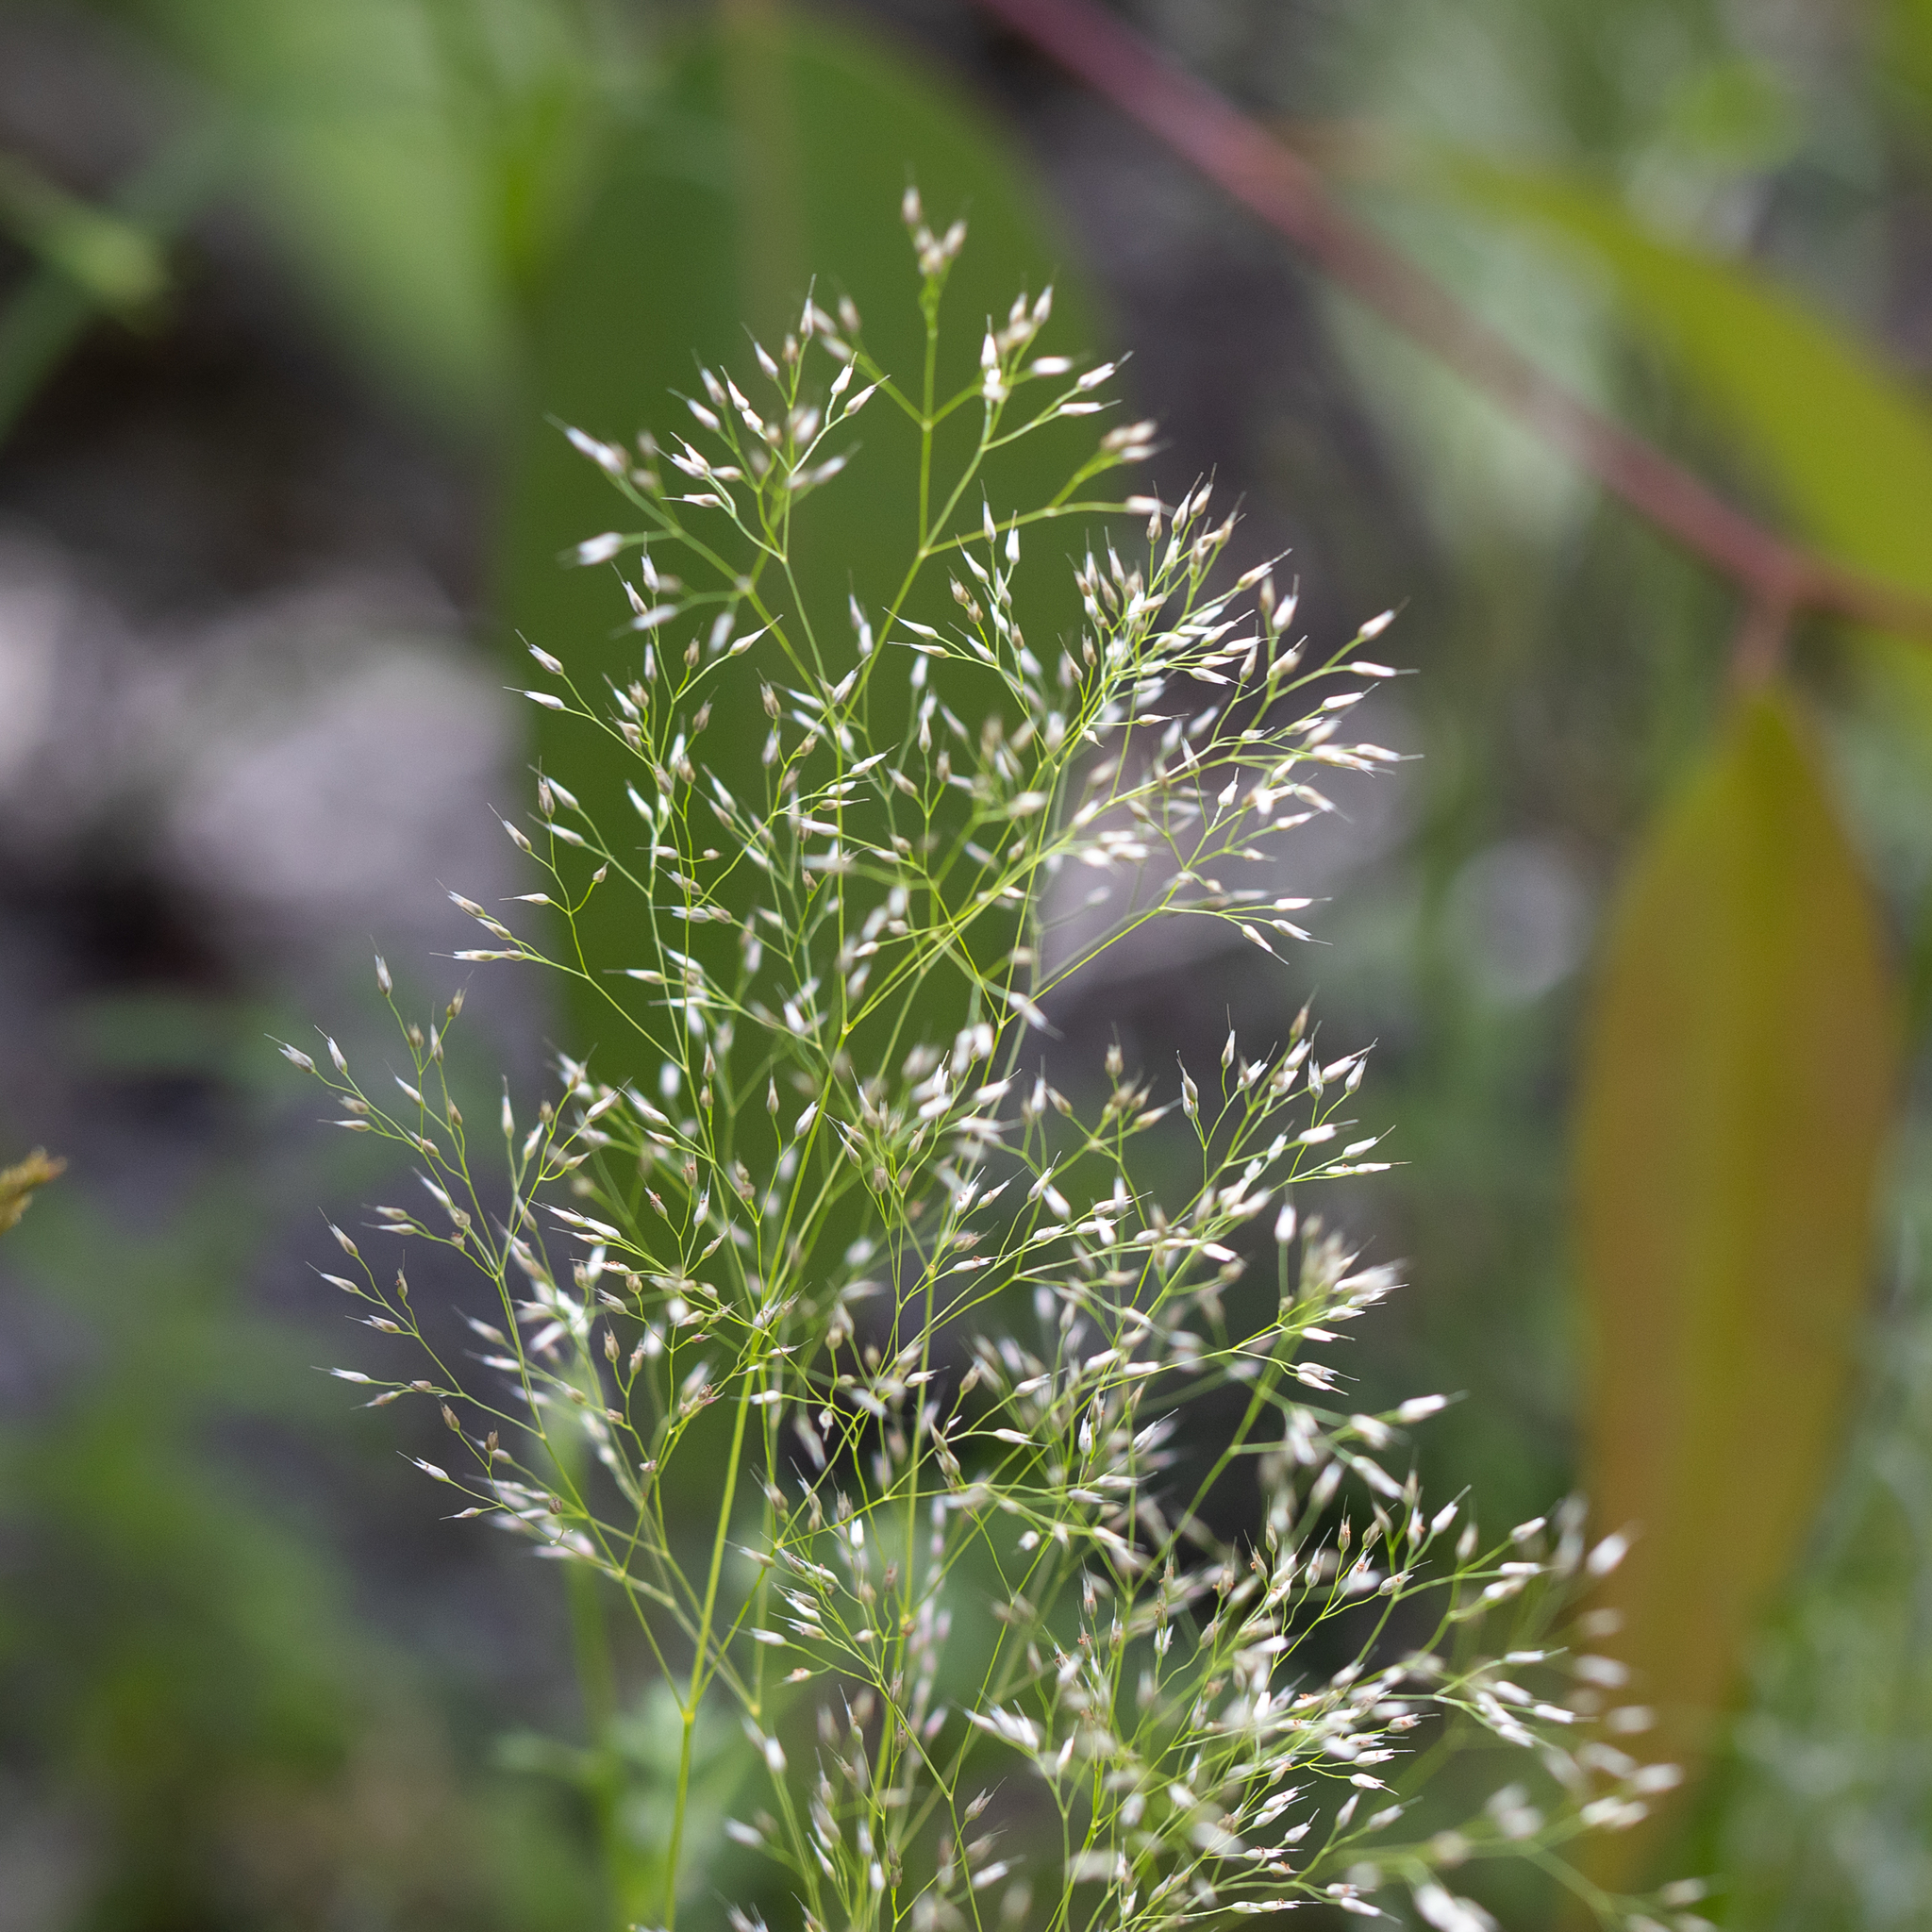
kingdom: Plantae
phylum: Tracheophyta
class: Liliopsida
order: Poales
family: Poaceae
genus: Aira
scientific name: Aira cupaniana
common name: Silver hairgrass
